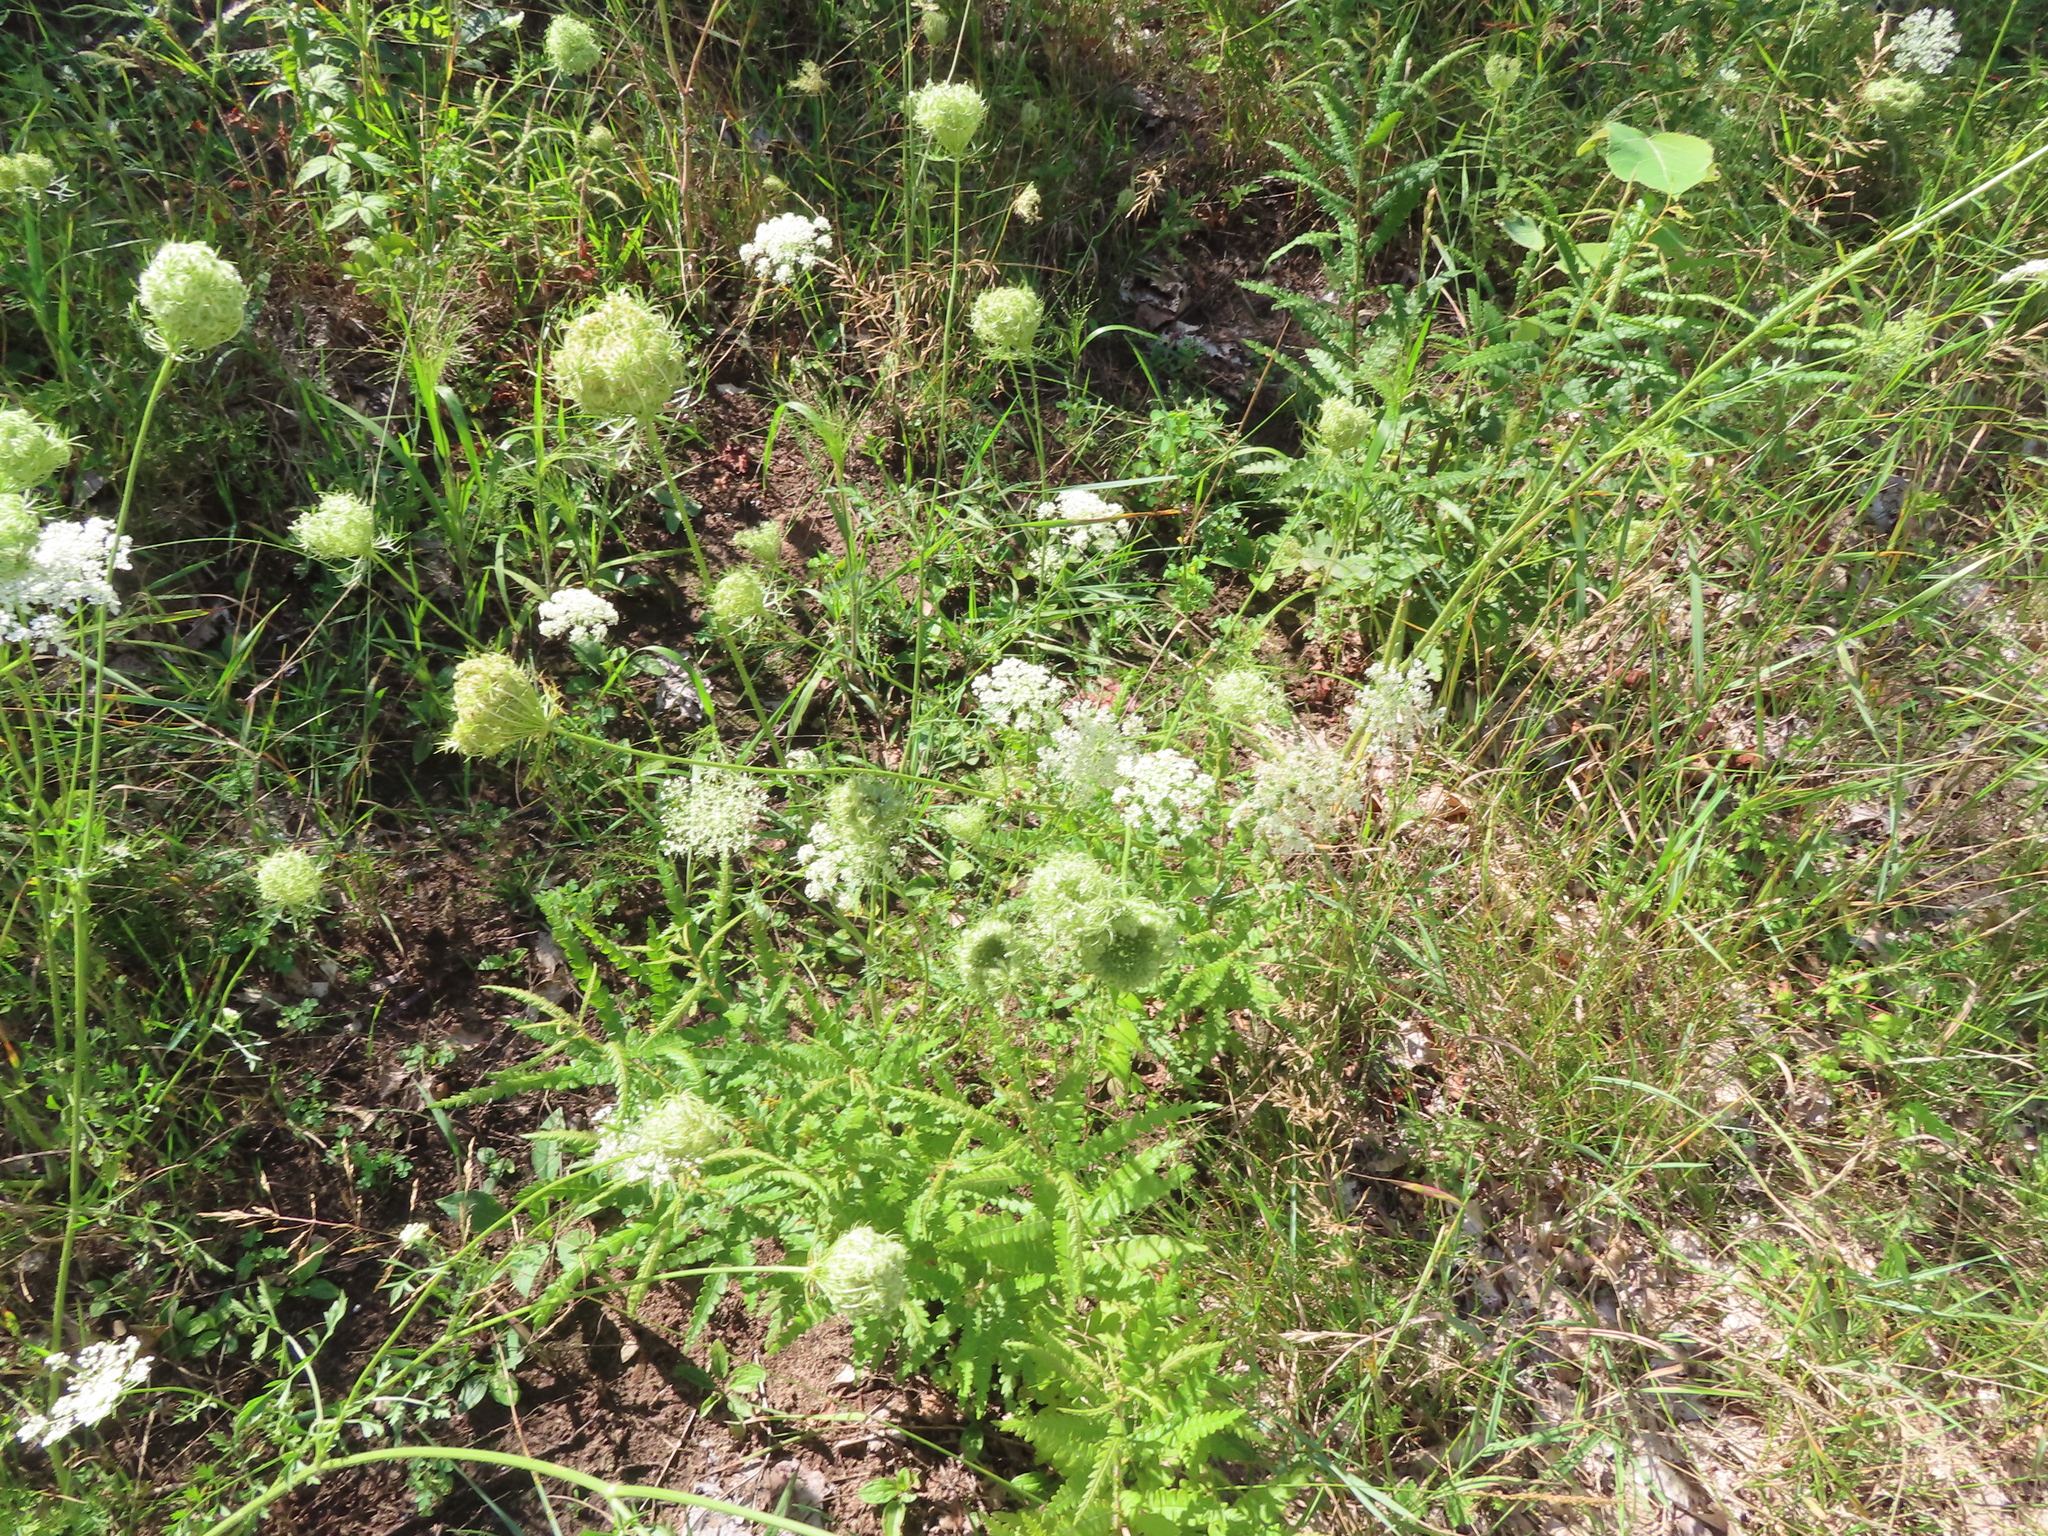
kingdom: Plantae
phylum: Tracheophyta
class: Magnoliopsida
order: Apiales
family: Apiaceae
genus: Daucus
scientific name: Daucus carota
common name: Wild carrot
